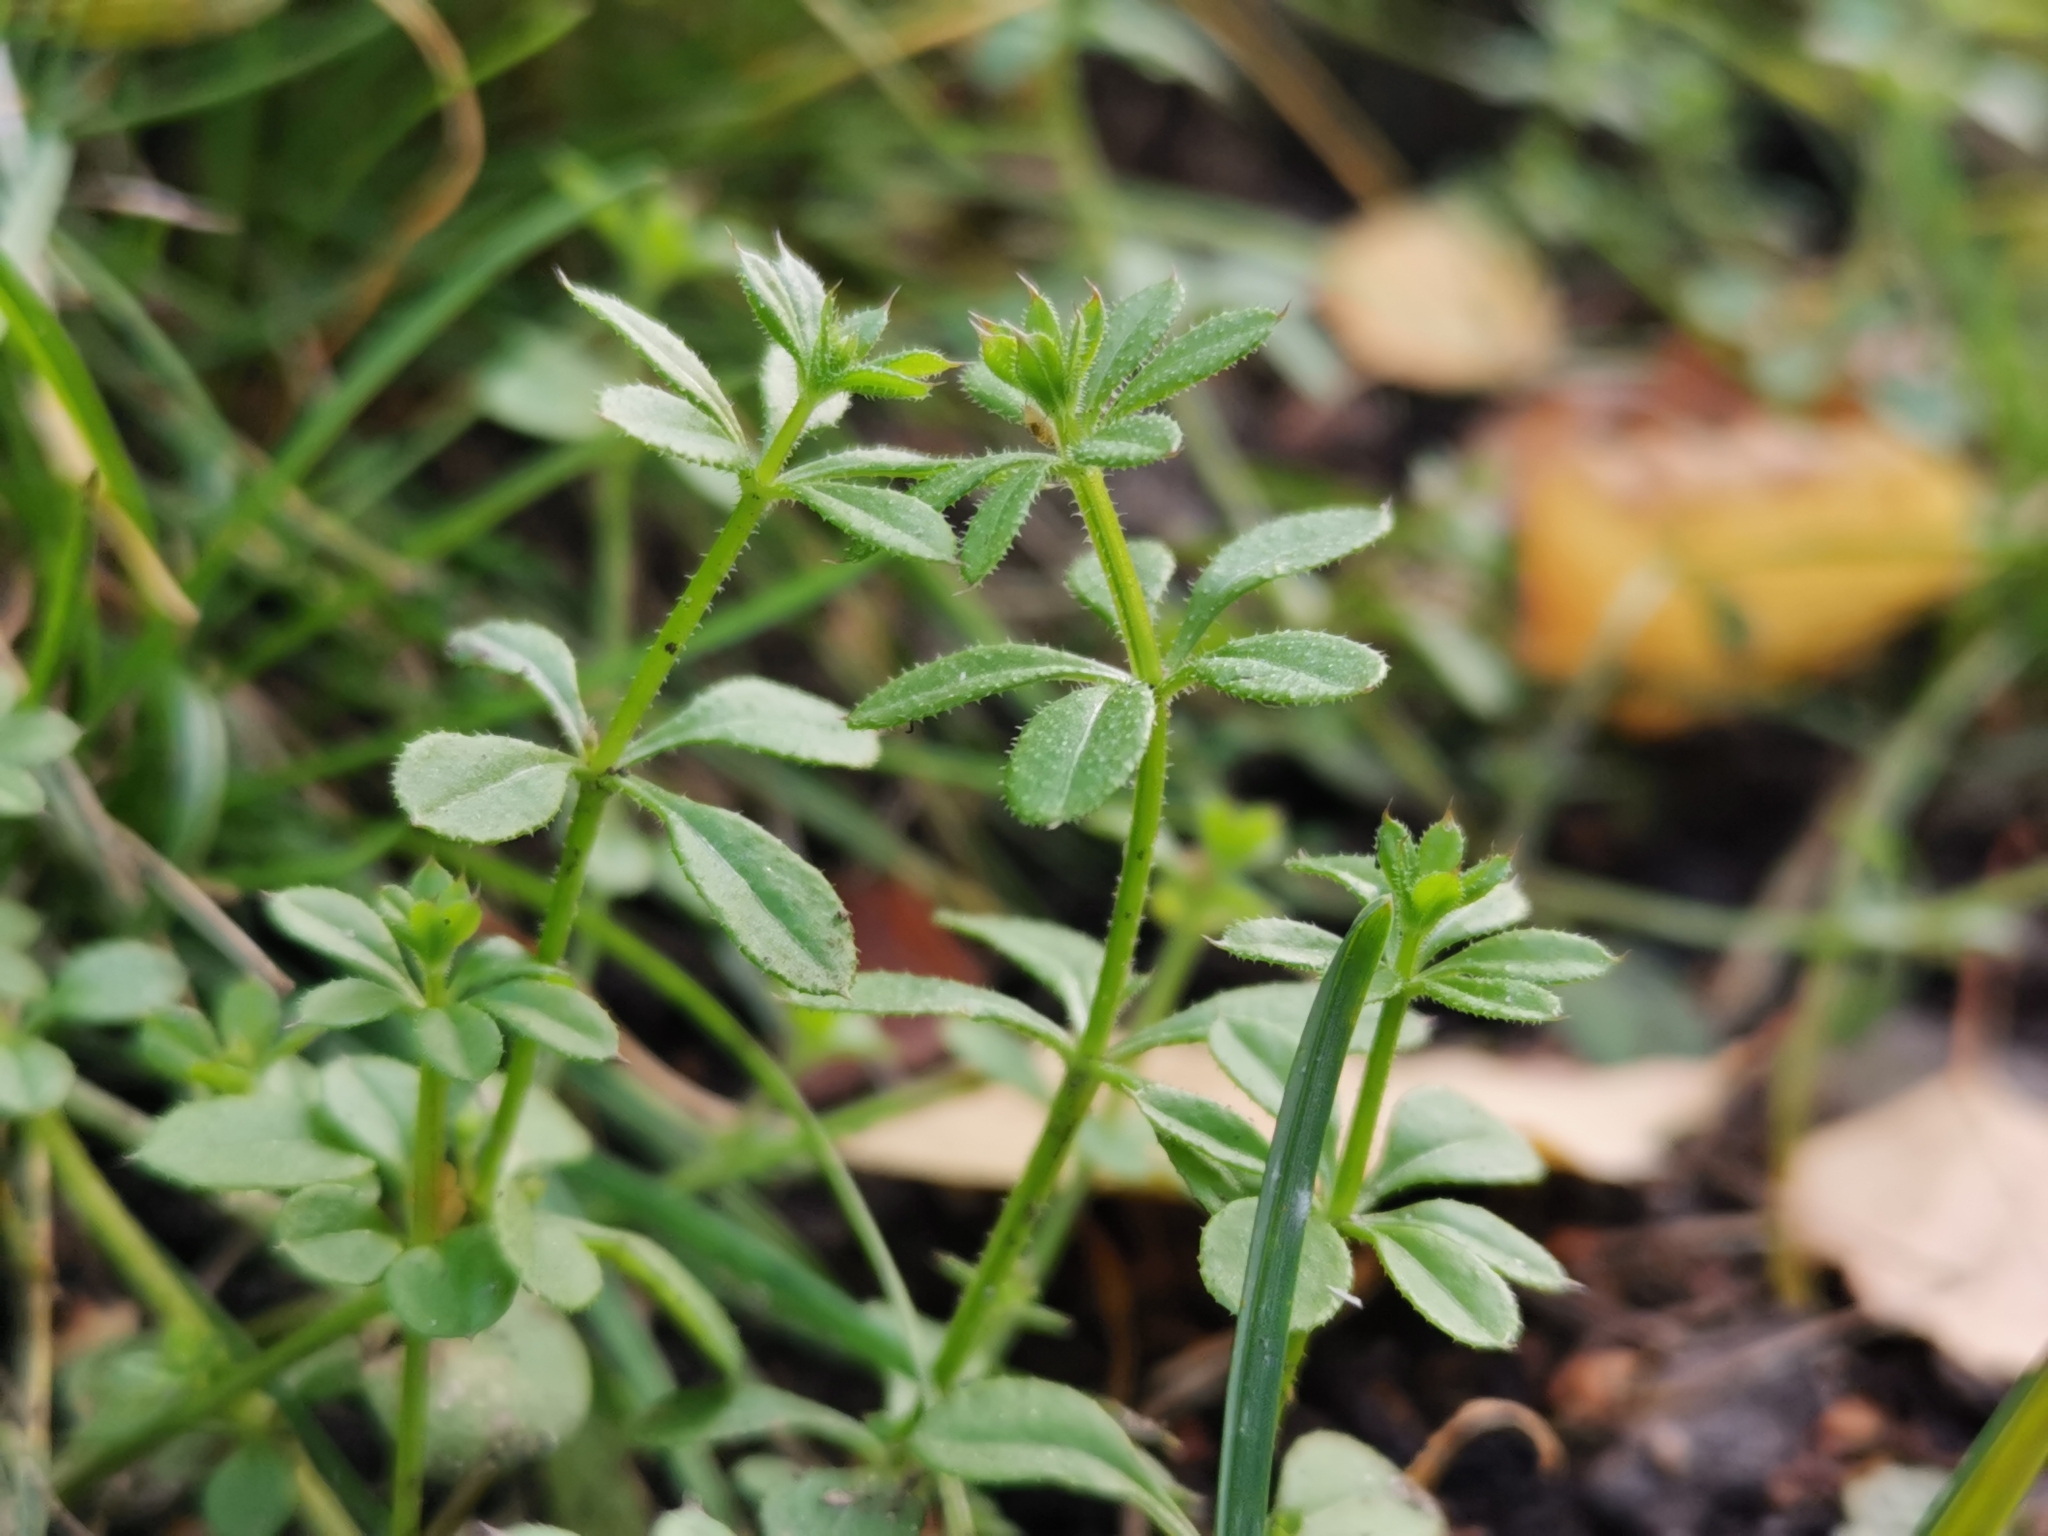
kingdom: Plantae
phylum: Tracheophyta
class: Magnoliopsida
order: Gentianales
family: Rubiaceae
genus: Galium
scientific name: Galium aparine
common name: Cleavers
